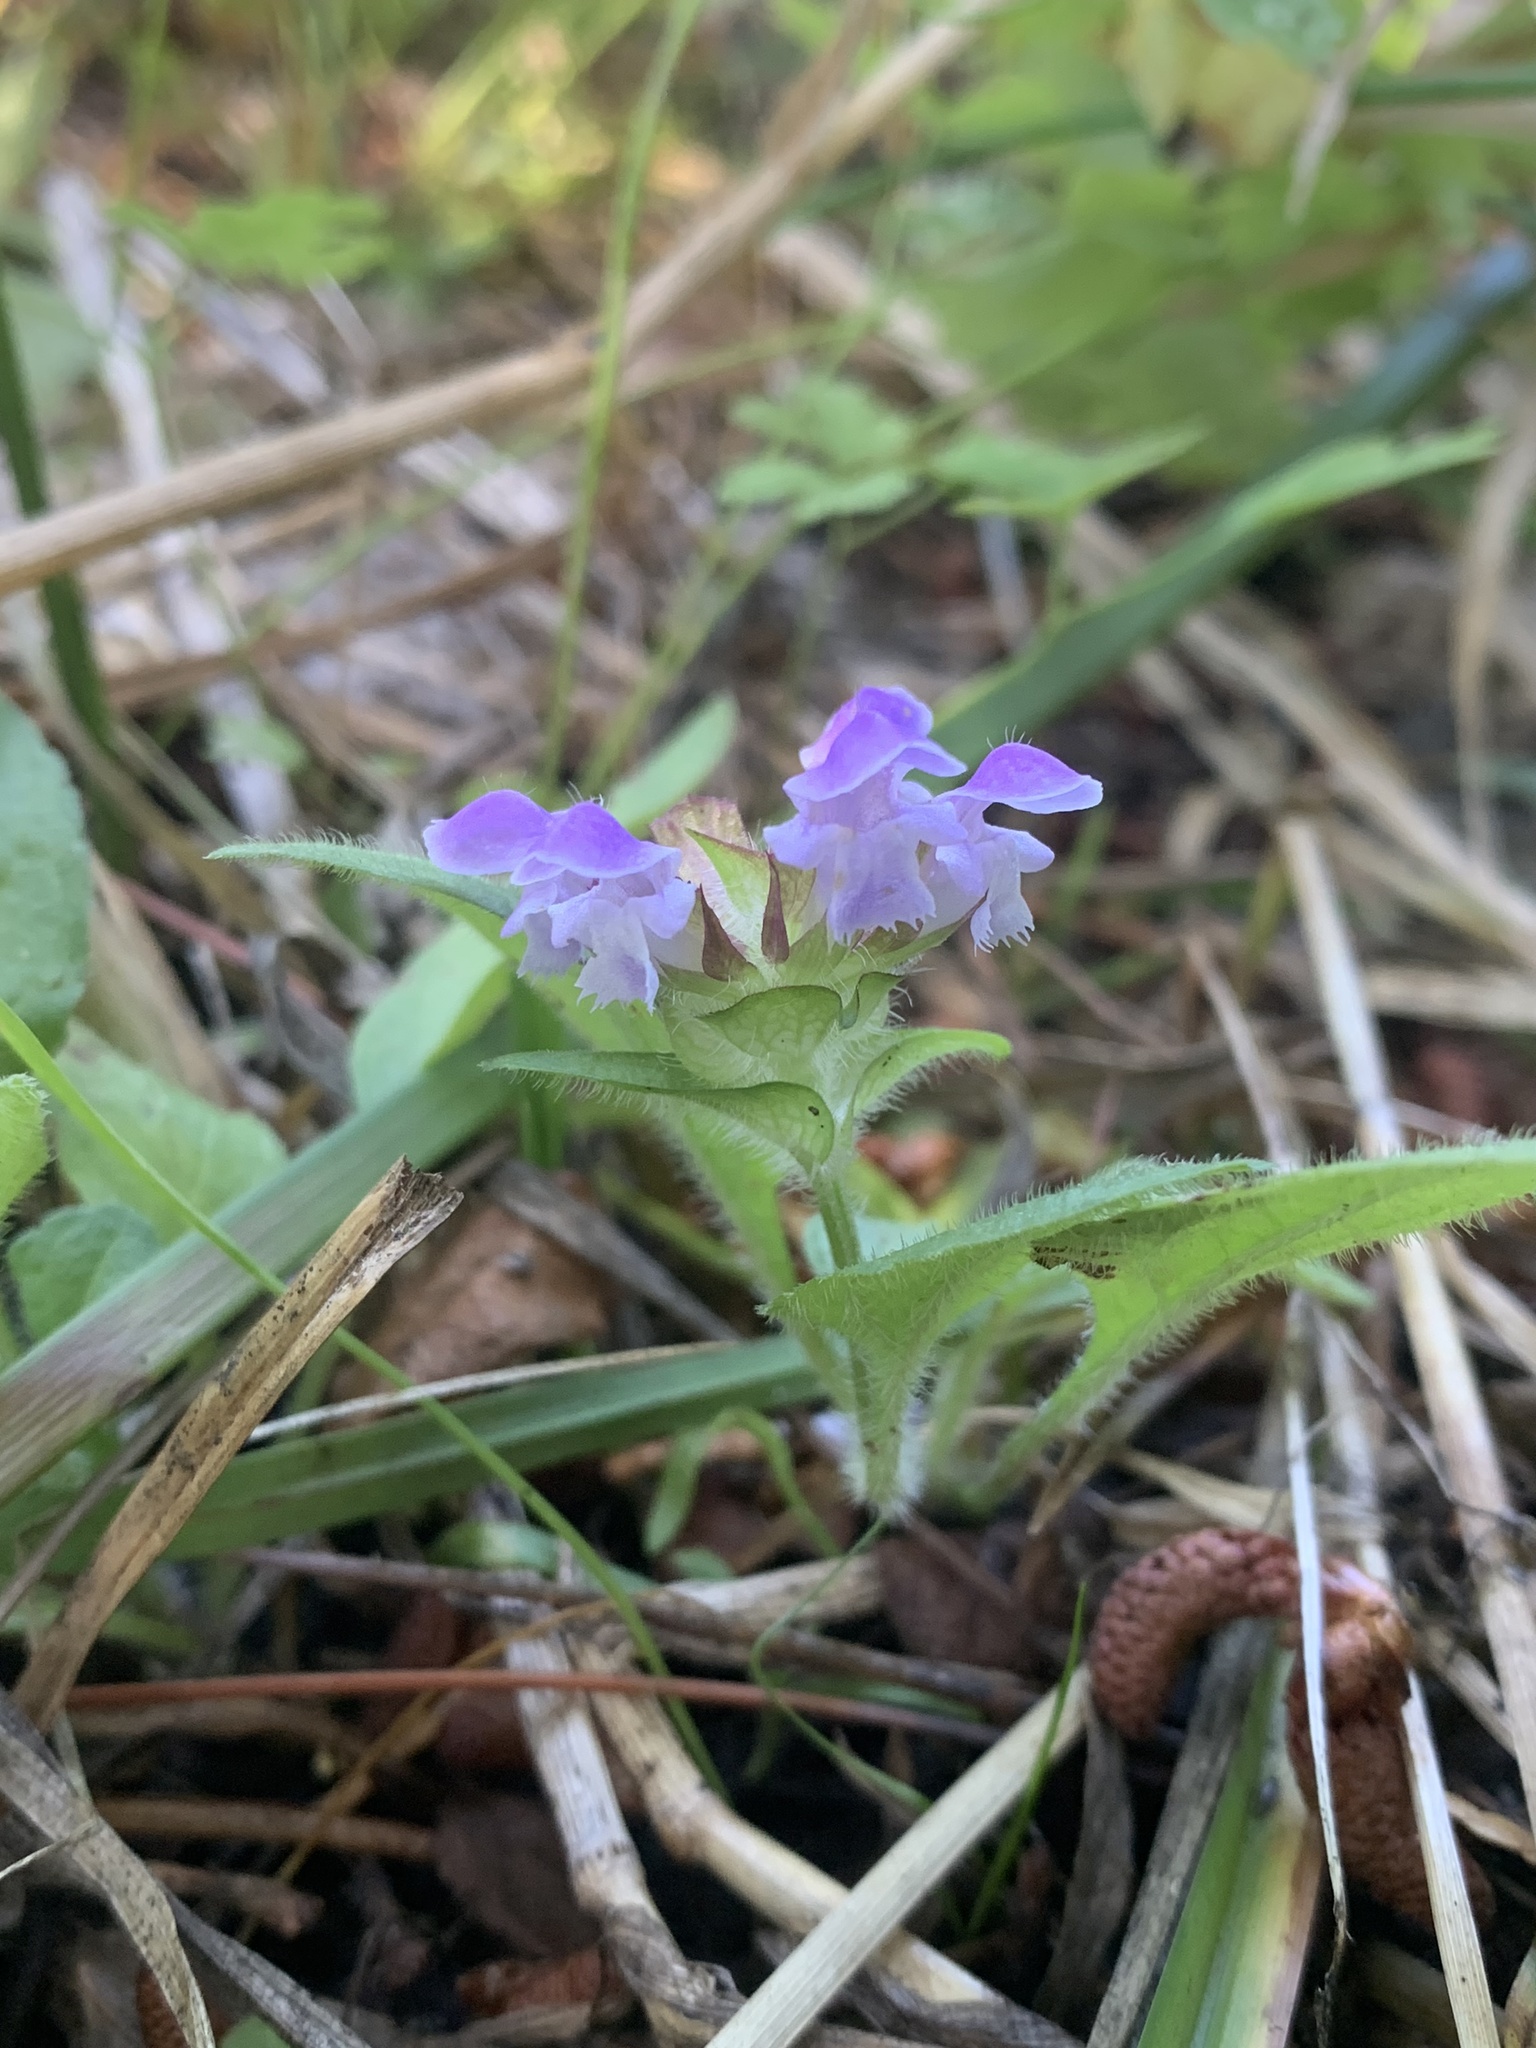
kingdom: Plantae
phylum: Tracheophyta
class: Magnoliopsida
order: Lamiales
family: Lamiaceae
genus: Prunella
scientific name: Prunella vulgaris
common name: Heal-all
